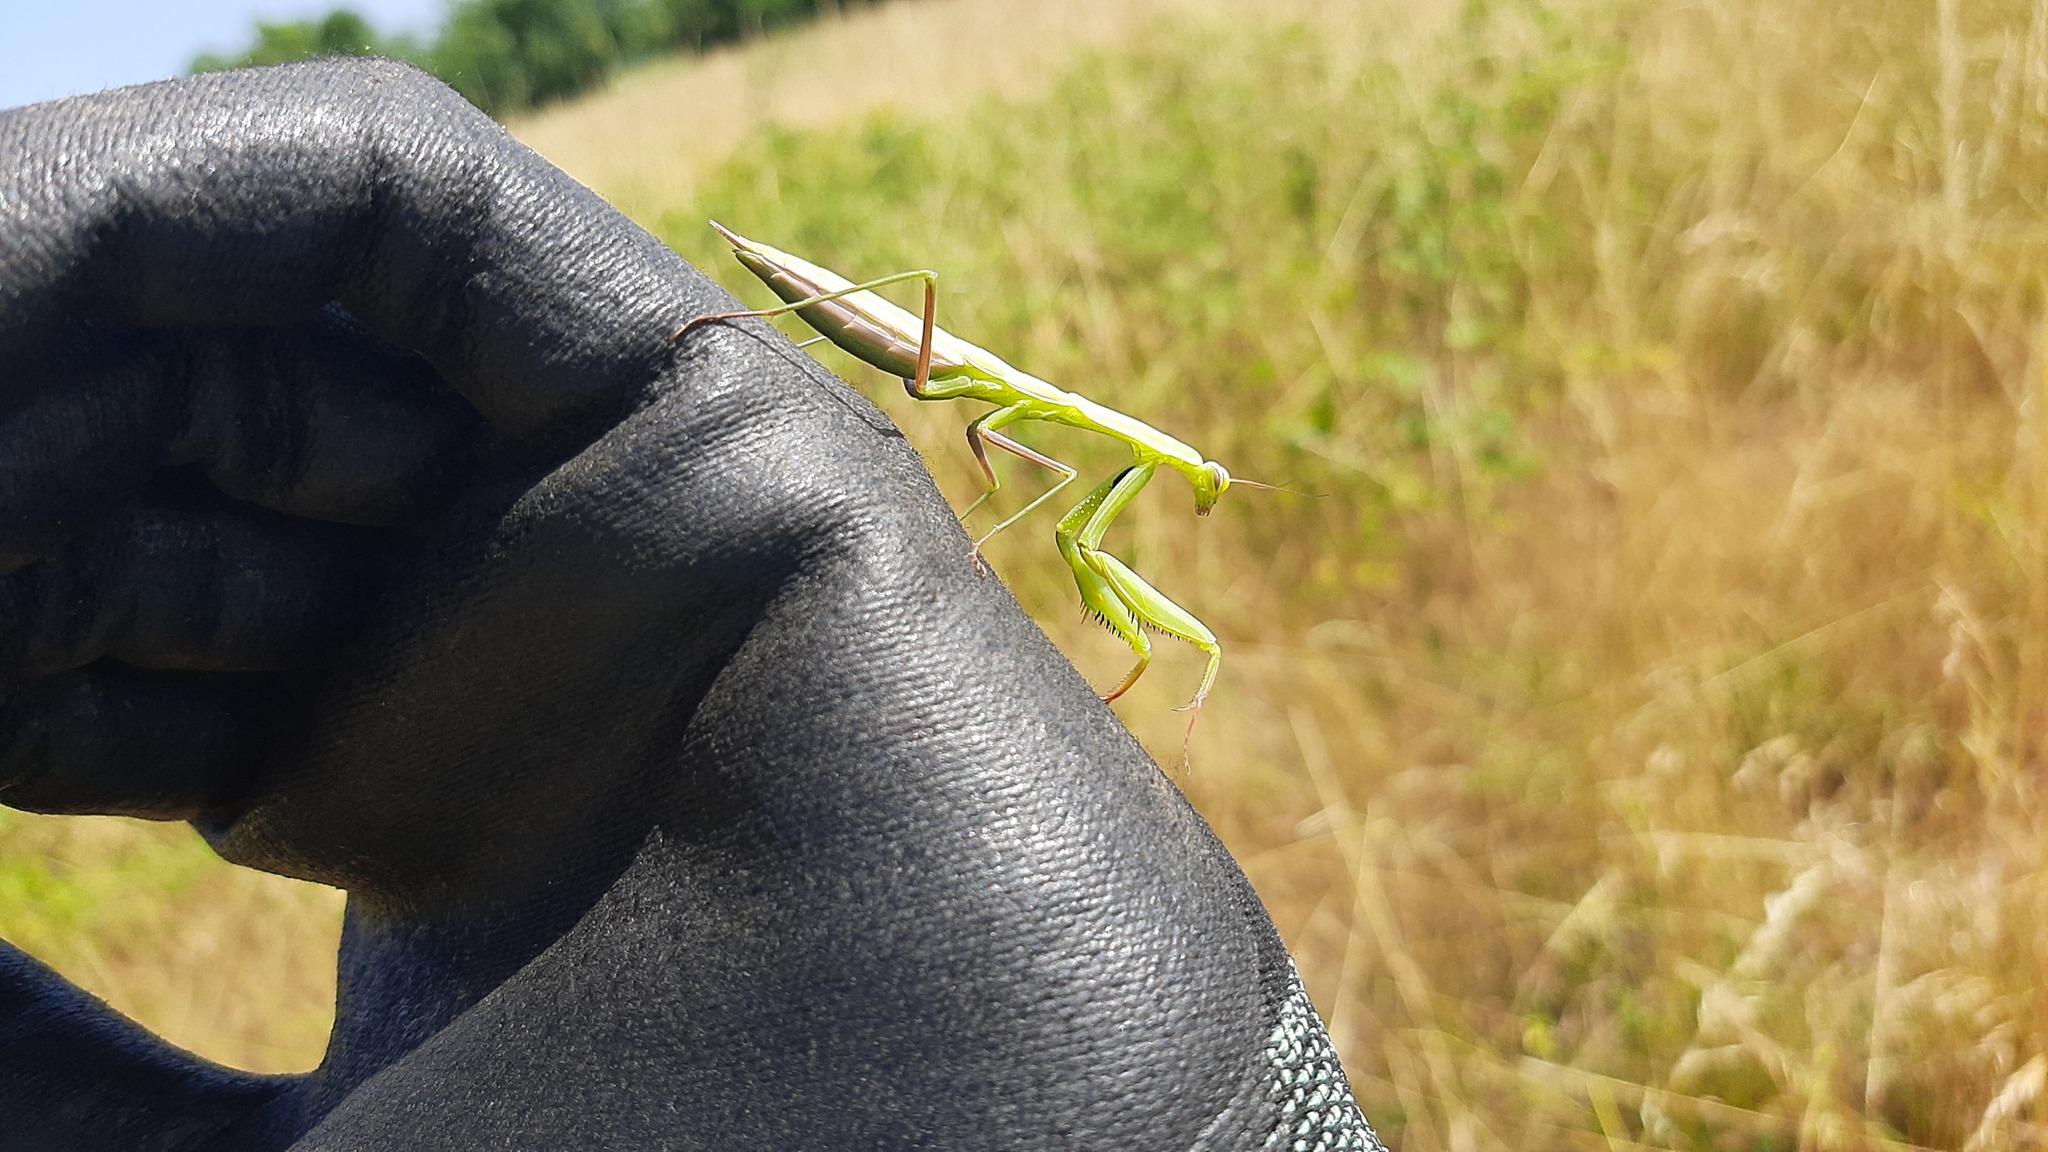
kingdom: Animalia
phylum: Arthropoda
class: Insecta
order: Mantodea
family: Mantidae
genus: Mantis
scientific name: Mantis religiosa
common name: Praying mantis
